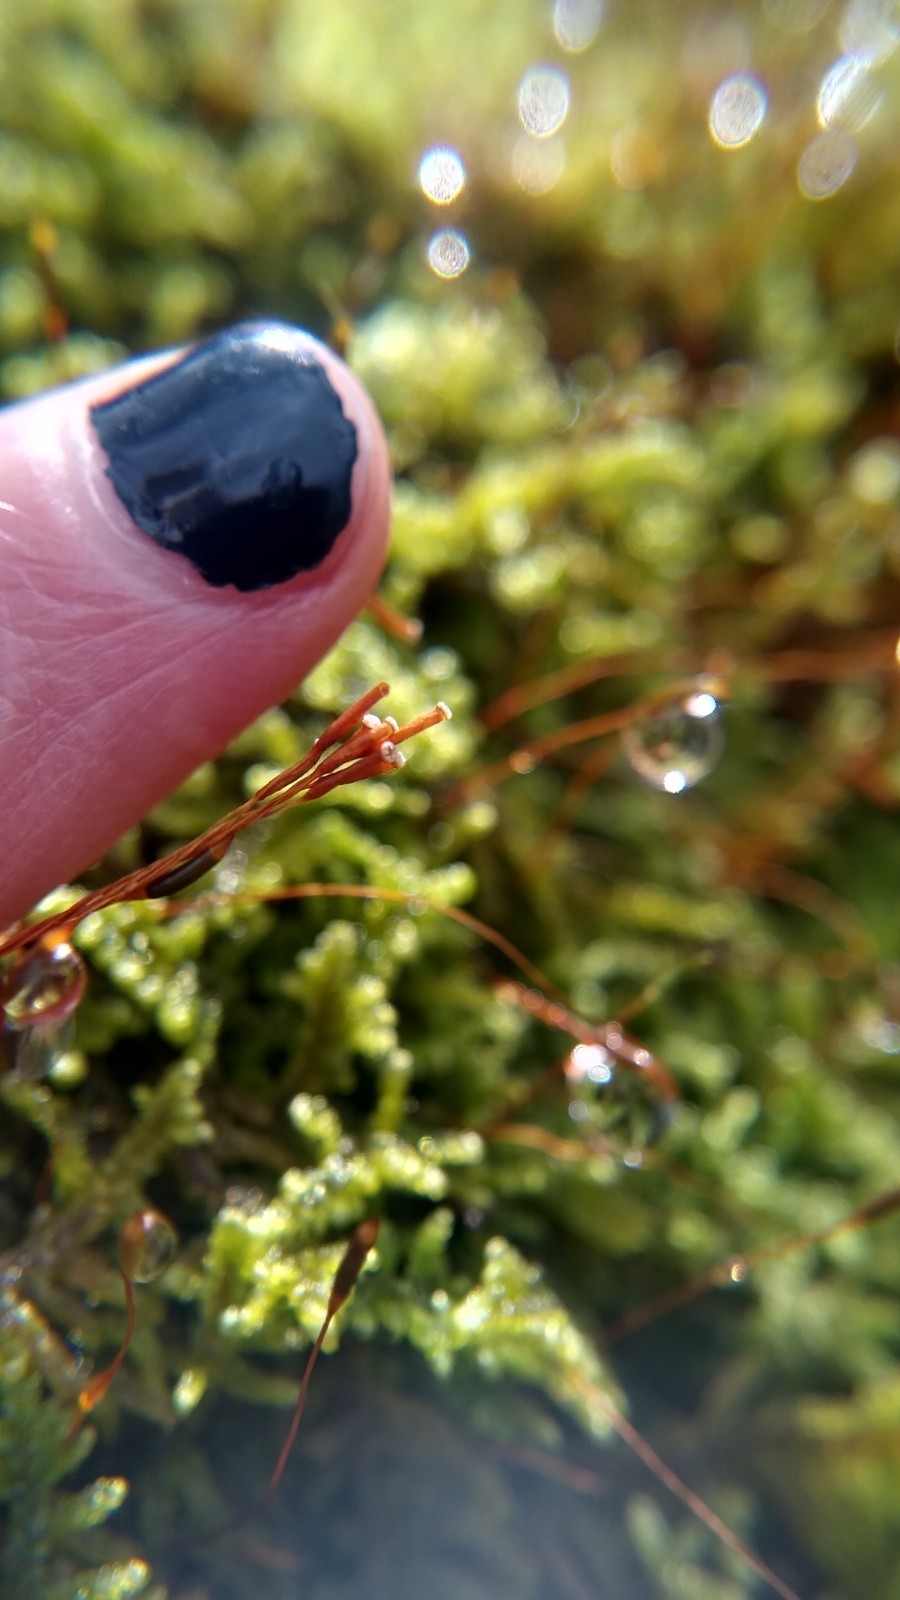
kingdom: Plantae
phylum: Bryophyta
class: Bryopsida
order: Hypnales
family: Callicladiaceae
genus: Callicladium
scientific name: Callicladium imponens
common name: Brocade moss
